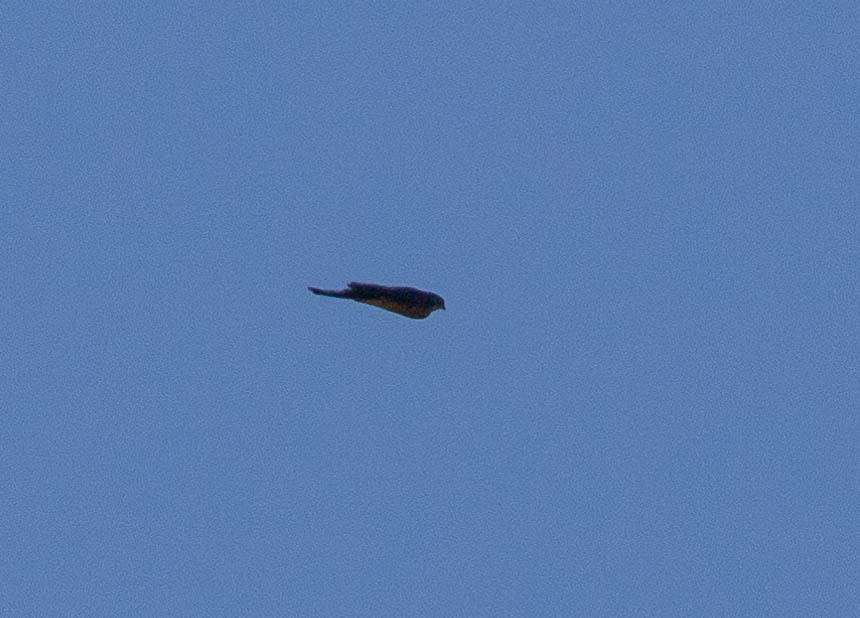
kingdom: Animalia
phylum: Chordata
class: Aves
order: Accipitriformes
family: Accipitridae
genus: Accipiter
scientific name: Accipiter striatus
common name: Sharp-shinned hawk
